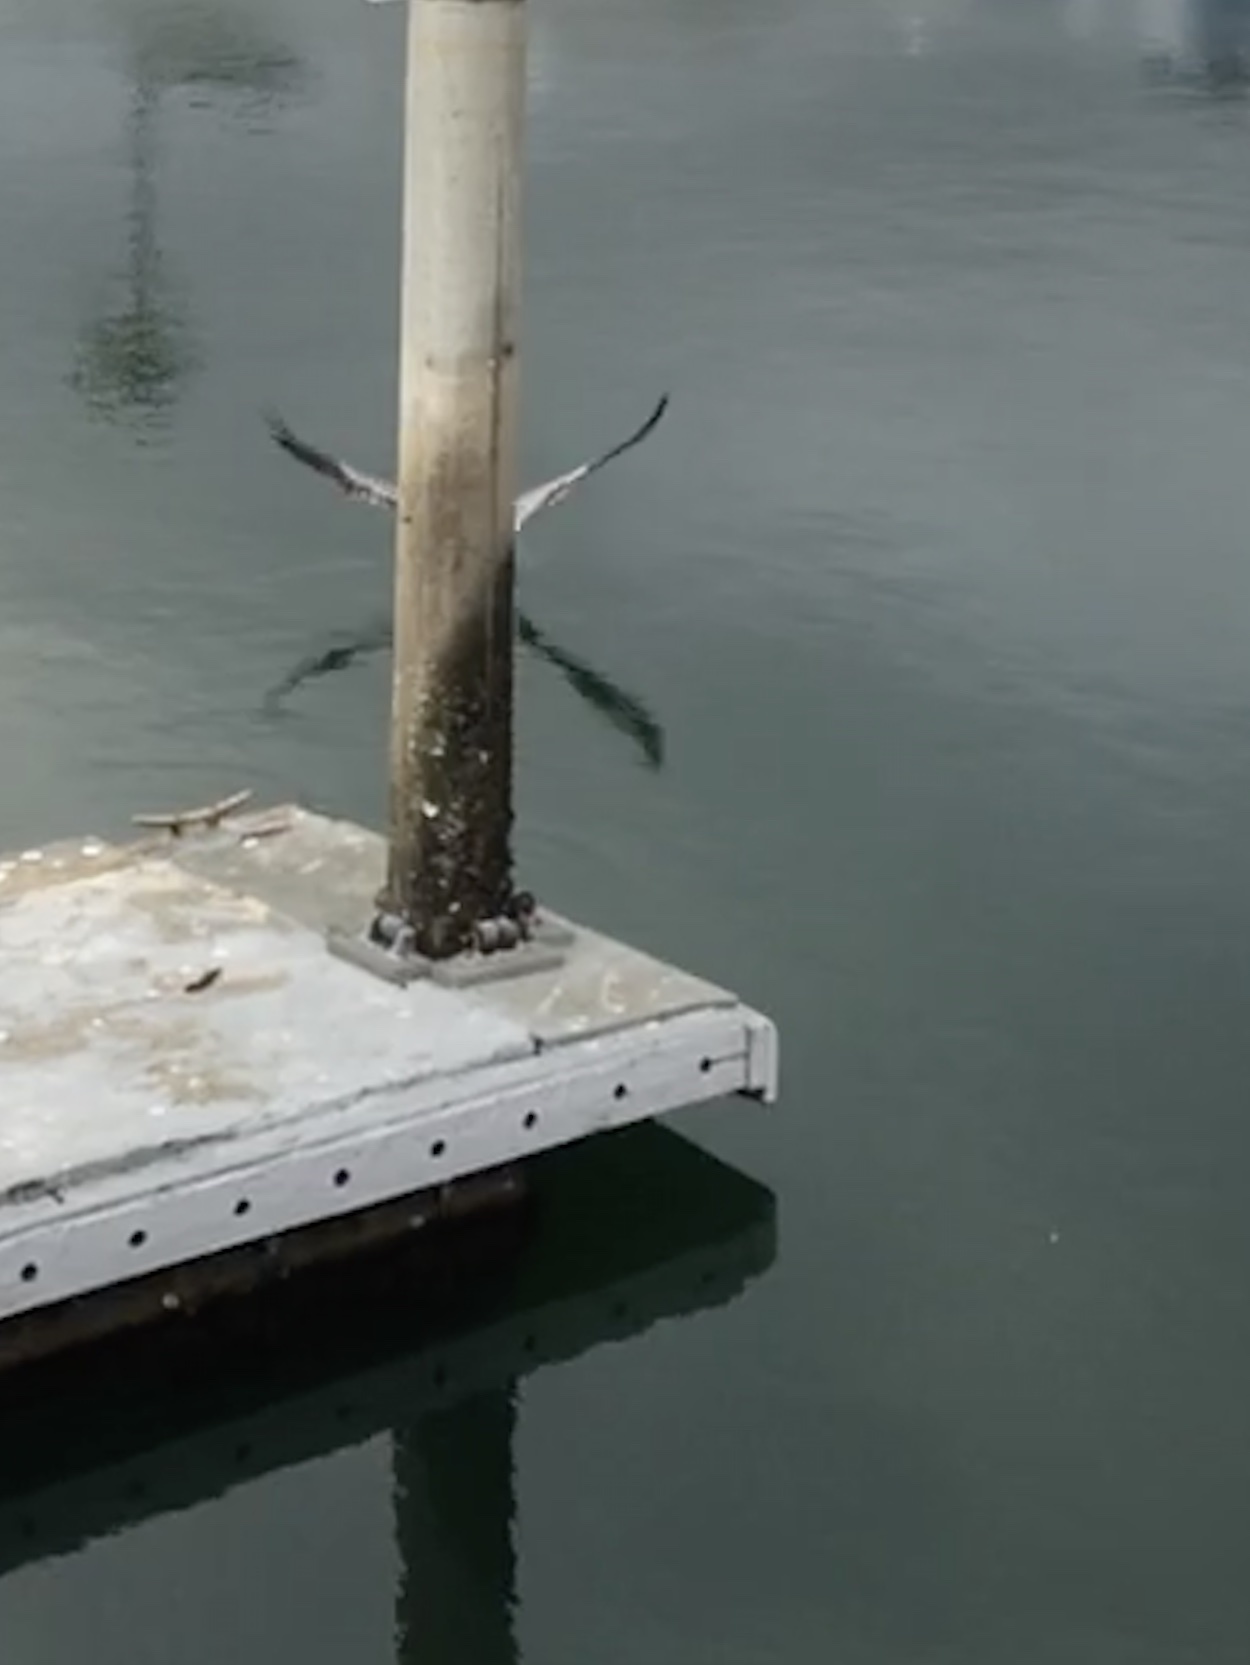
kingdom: Animalia
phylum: Chordata
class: Aves
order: Pelecaniformes
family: Pelecanidae
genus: Pelecanus
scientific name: Pelecanus occidentalis
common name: Brown pelican
